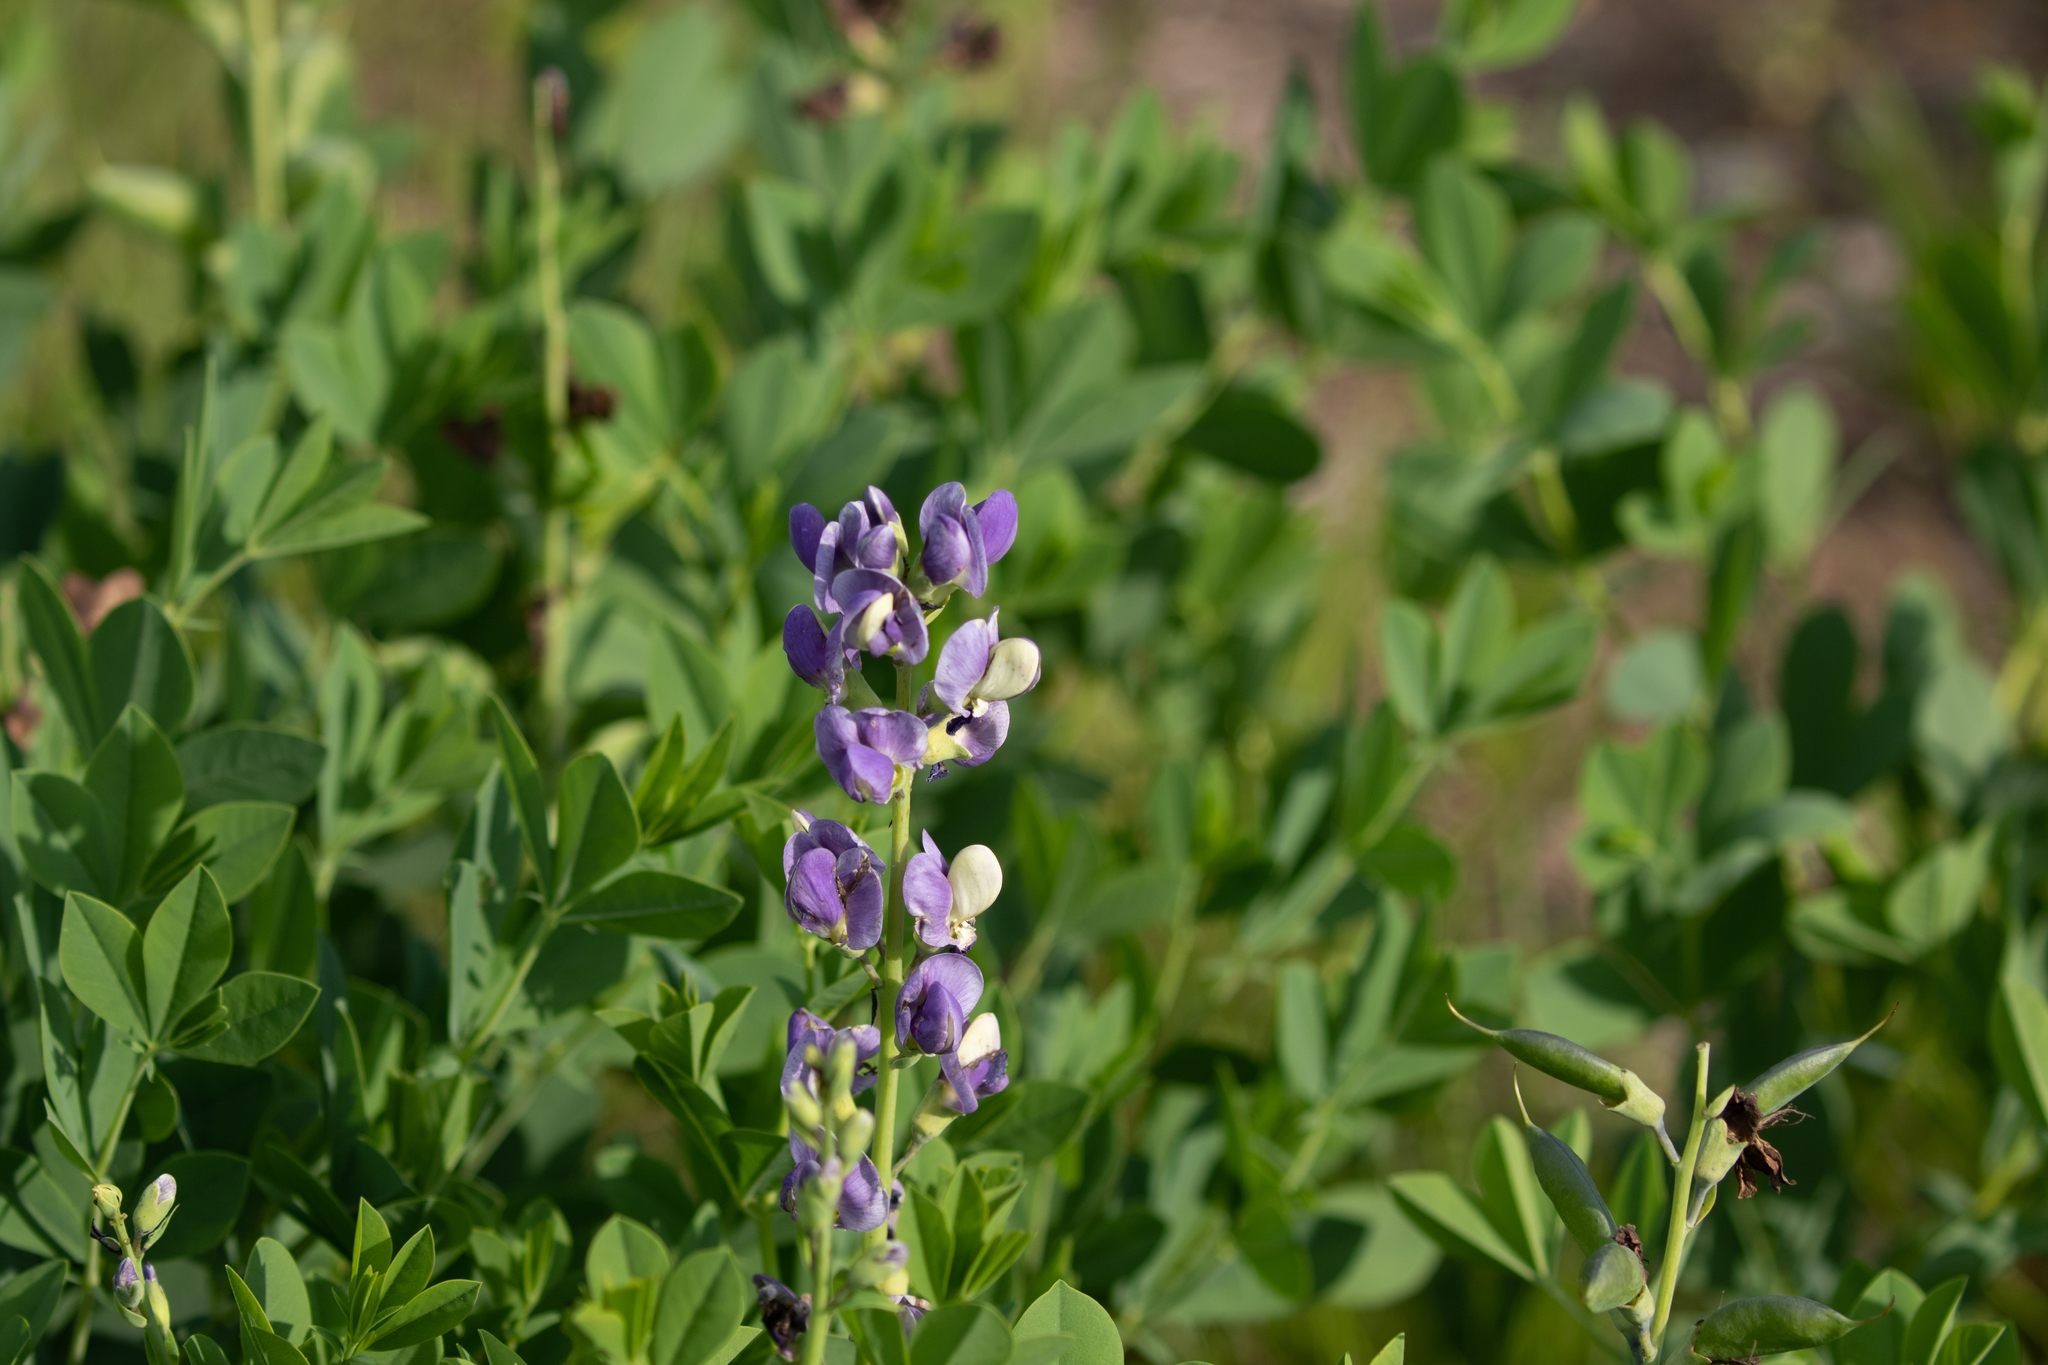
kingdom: Plantae
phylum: Tracheophyta
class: Magnoliopsida
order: Fabales
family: Fabaceae
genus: Baptisia
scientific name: Baptisia australis
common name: Blue false indigo
